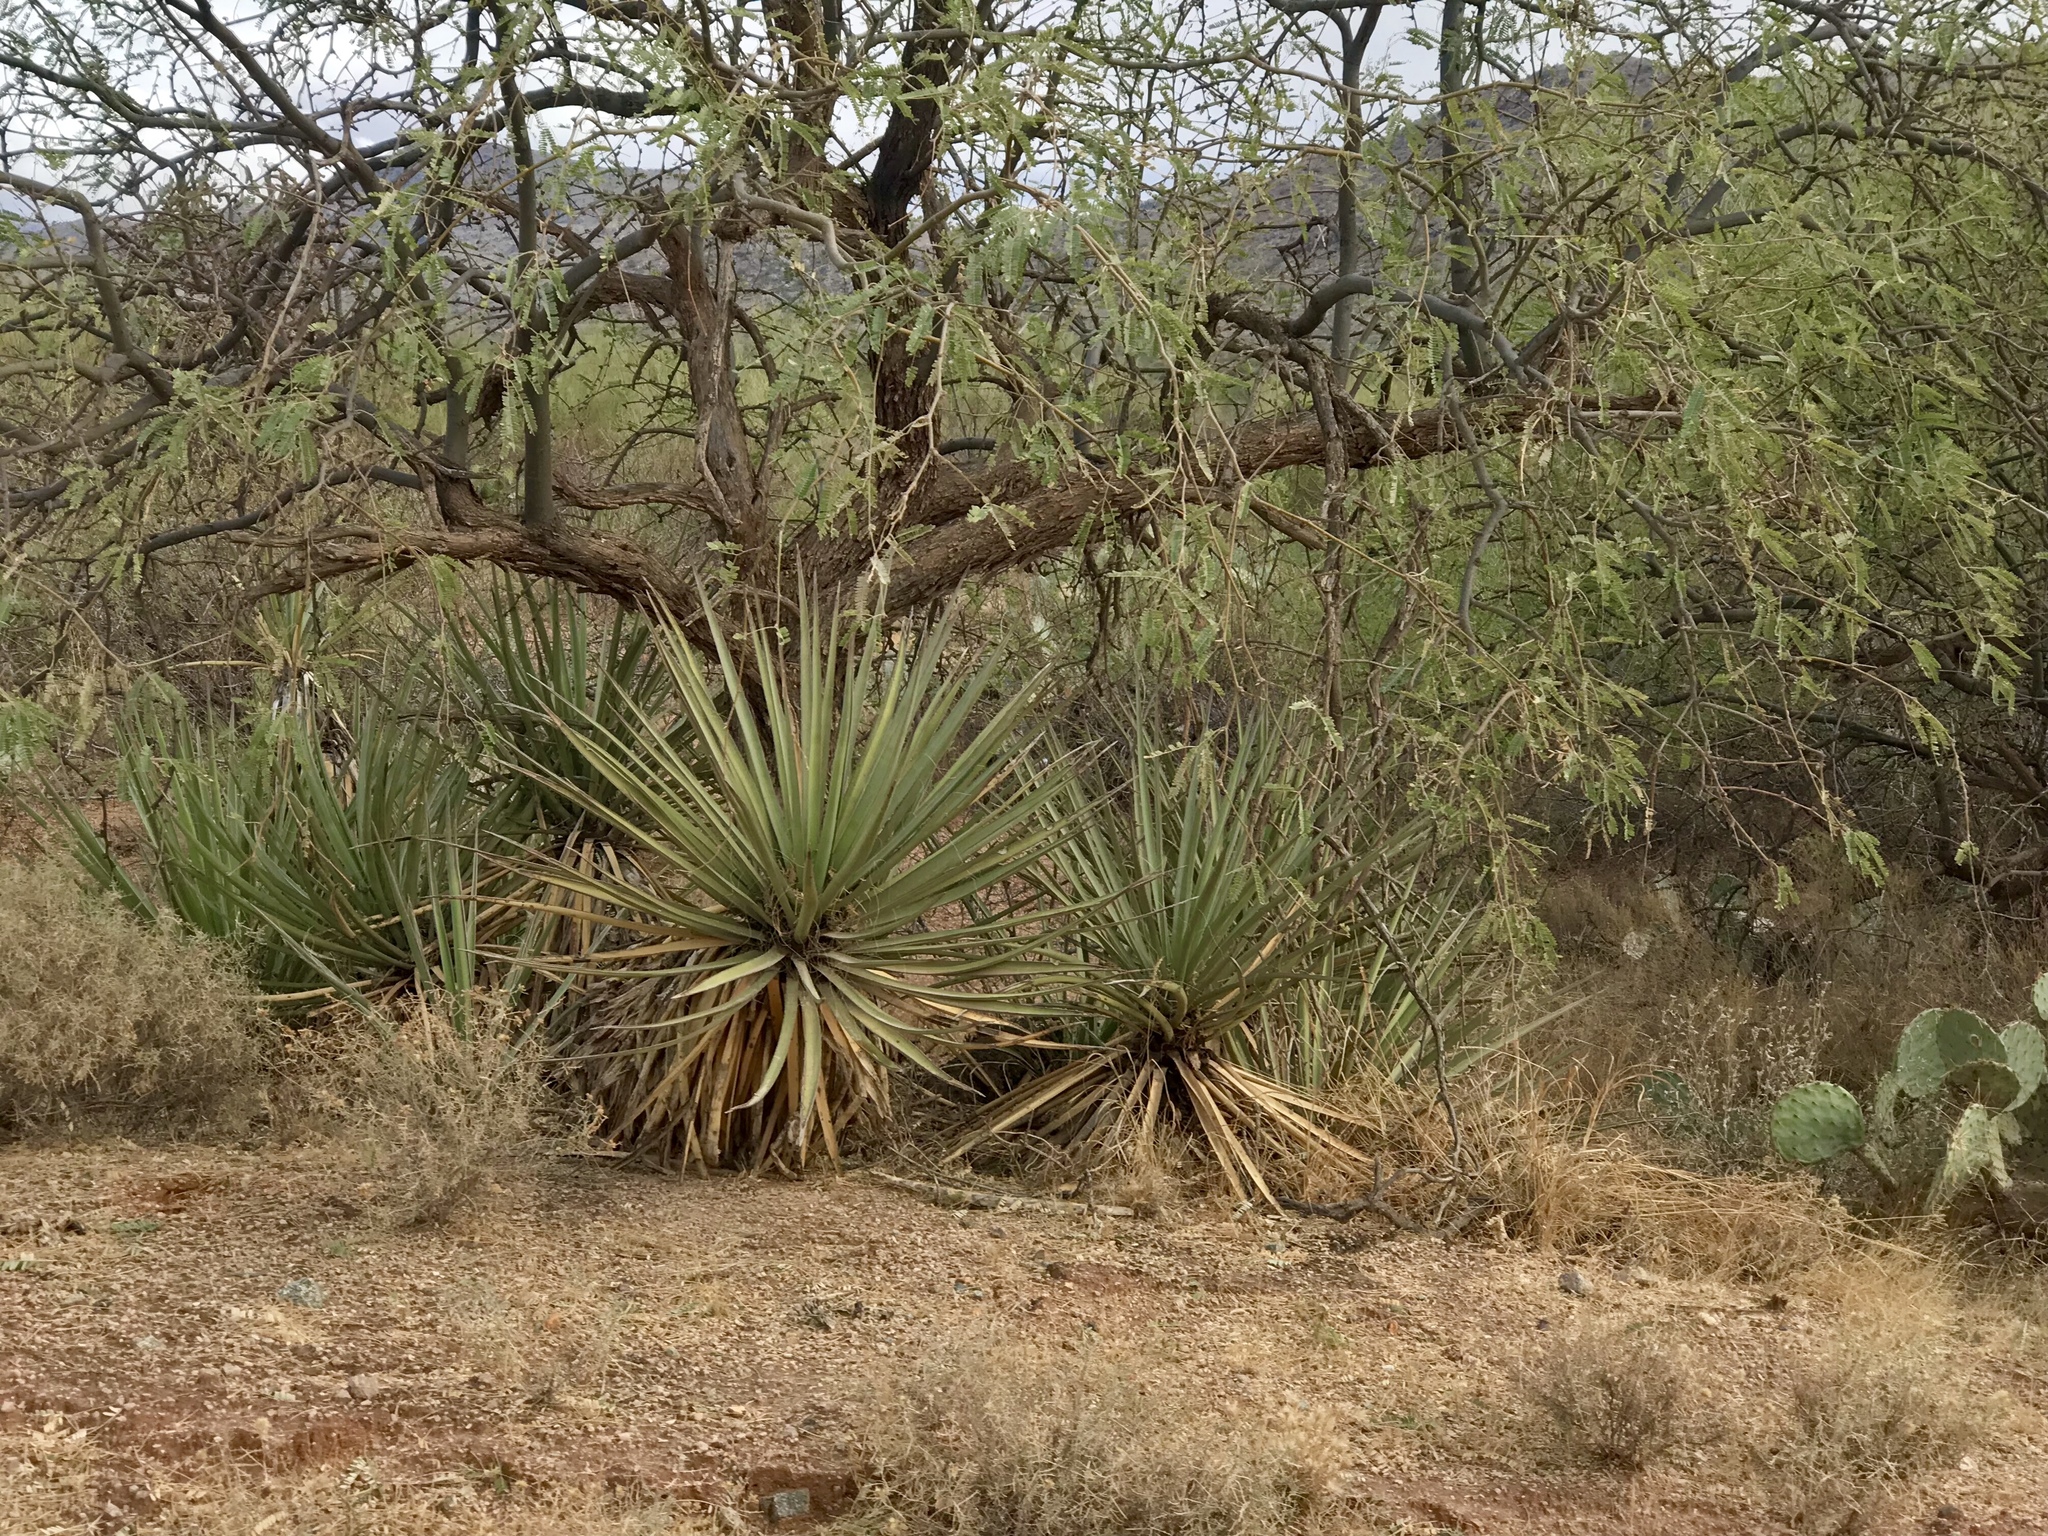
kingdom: Plantae
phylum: Tracheophyta
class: Liliopsida
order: Asparagales
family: Asparagaceae
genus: Yucca
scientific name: Yucca baccata
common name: Banana yucca
